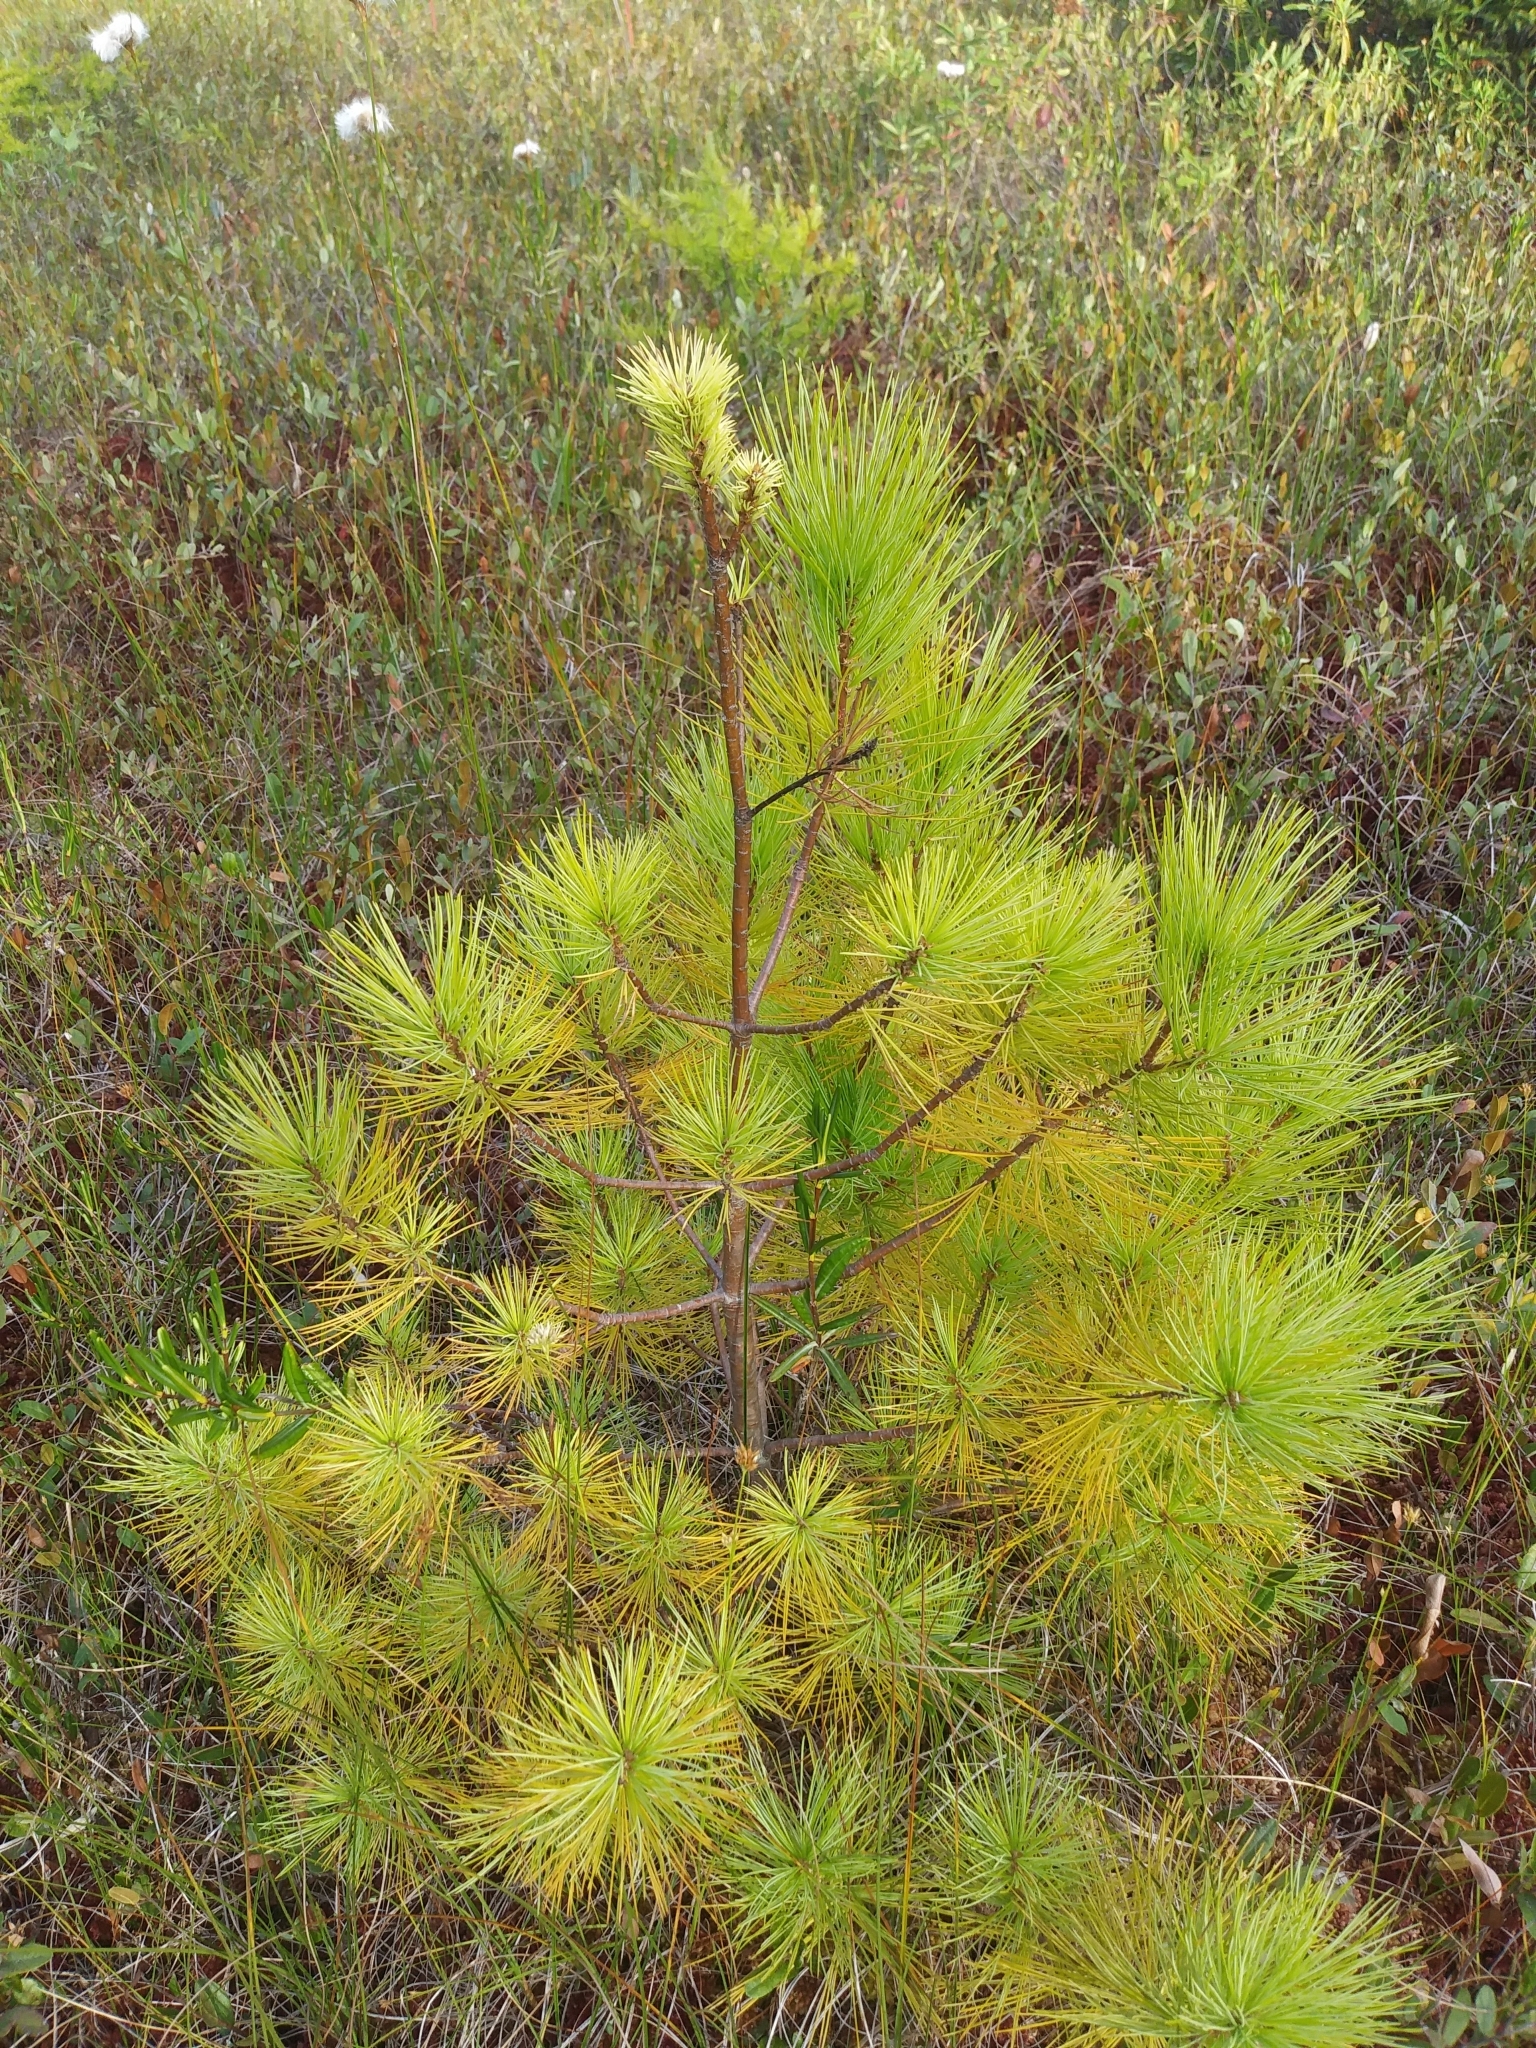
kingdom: Plantae
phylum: Tracheophyta
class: Pinopsida
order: Pinales
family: Pinaceae
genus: Pinus
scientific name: Pinus strobus
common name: Weymouth pine
